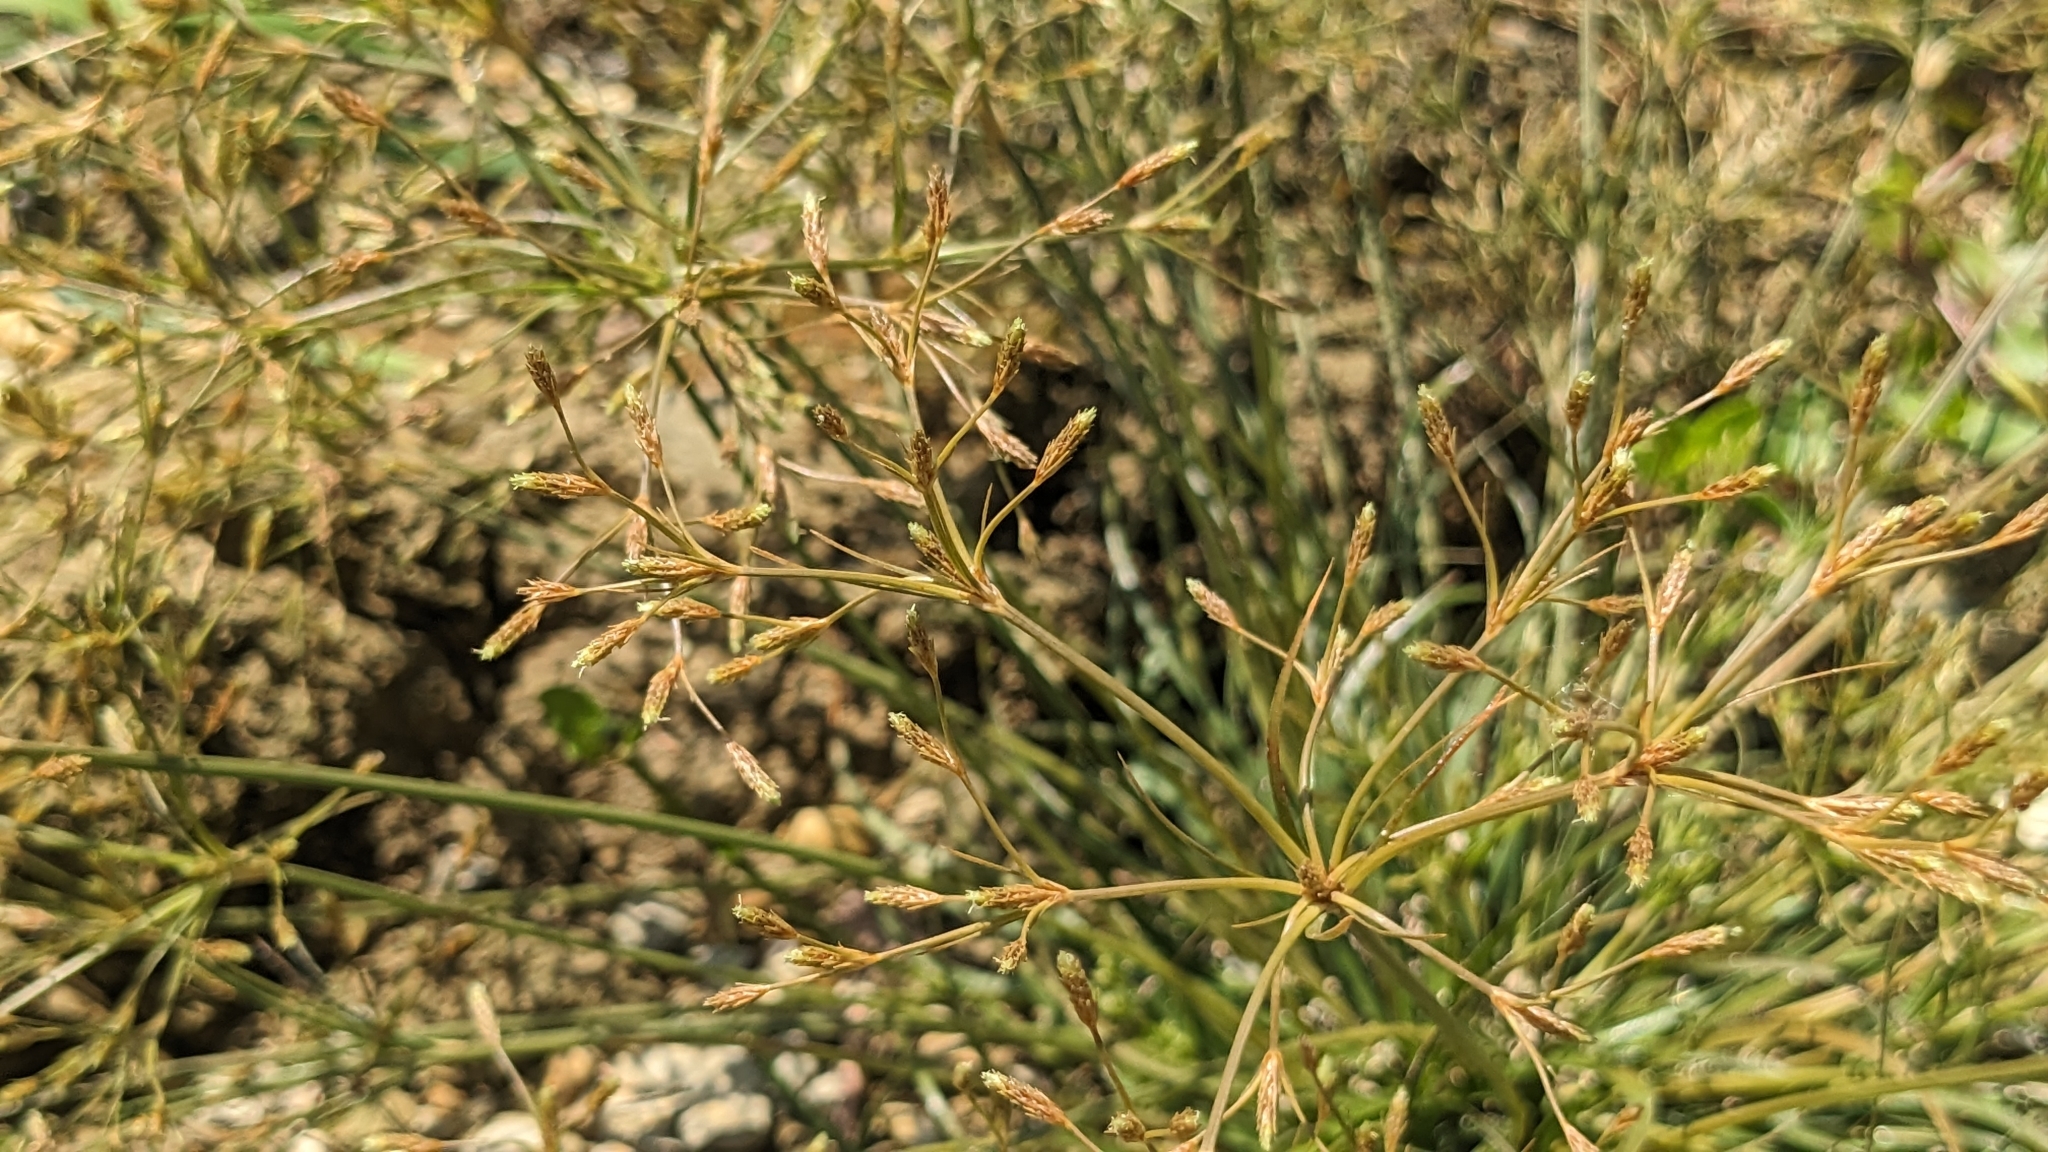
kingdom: Plantae
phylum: Tracheophyta
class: Liliopsida
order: Poales
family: Cyperaceae
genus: Fimbristylis
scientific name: Fimbristylis griffithii
